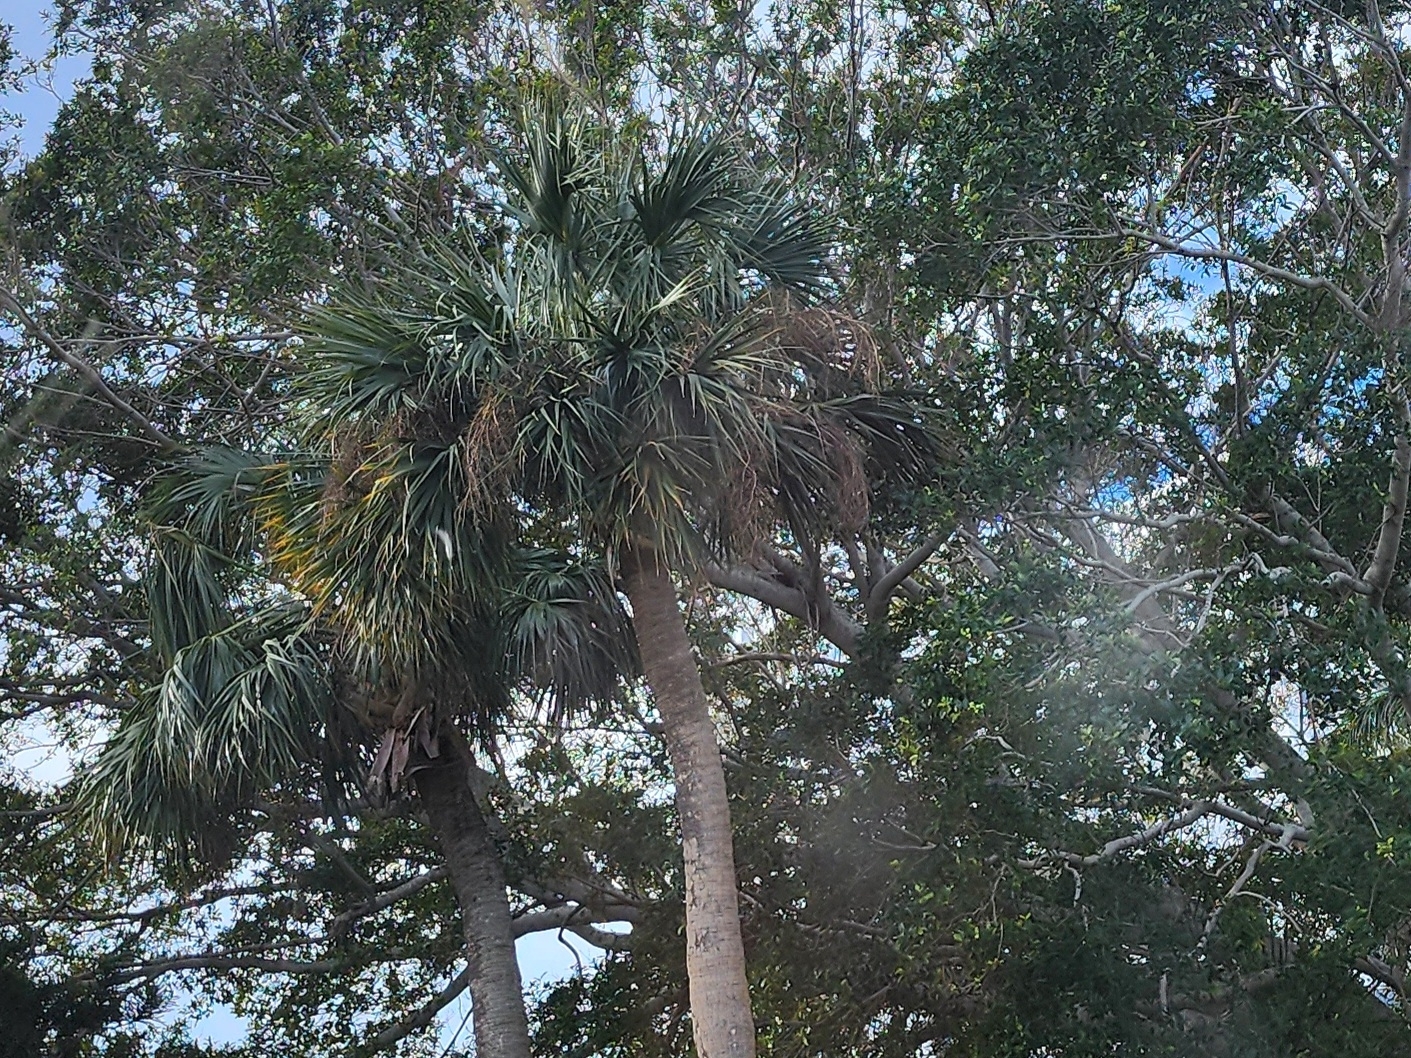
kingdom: Plantae
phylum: Tracheophyta
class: Liliopsida
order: Arecales
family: Arecaceae
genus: Sabal
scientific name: Sabal palmetto
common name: Blue palmetto
